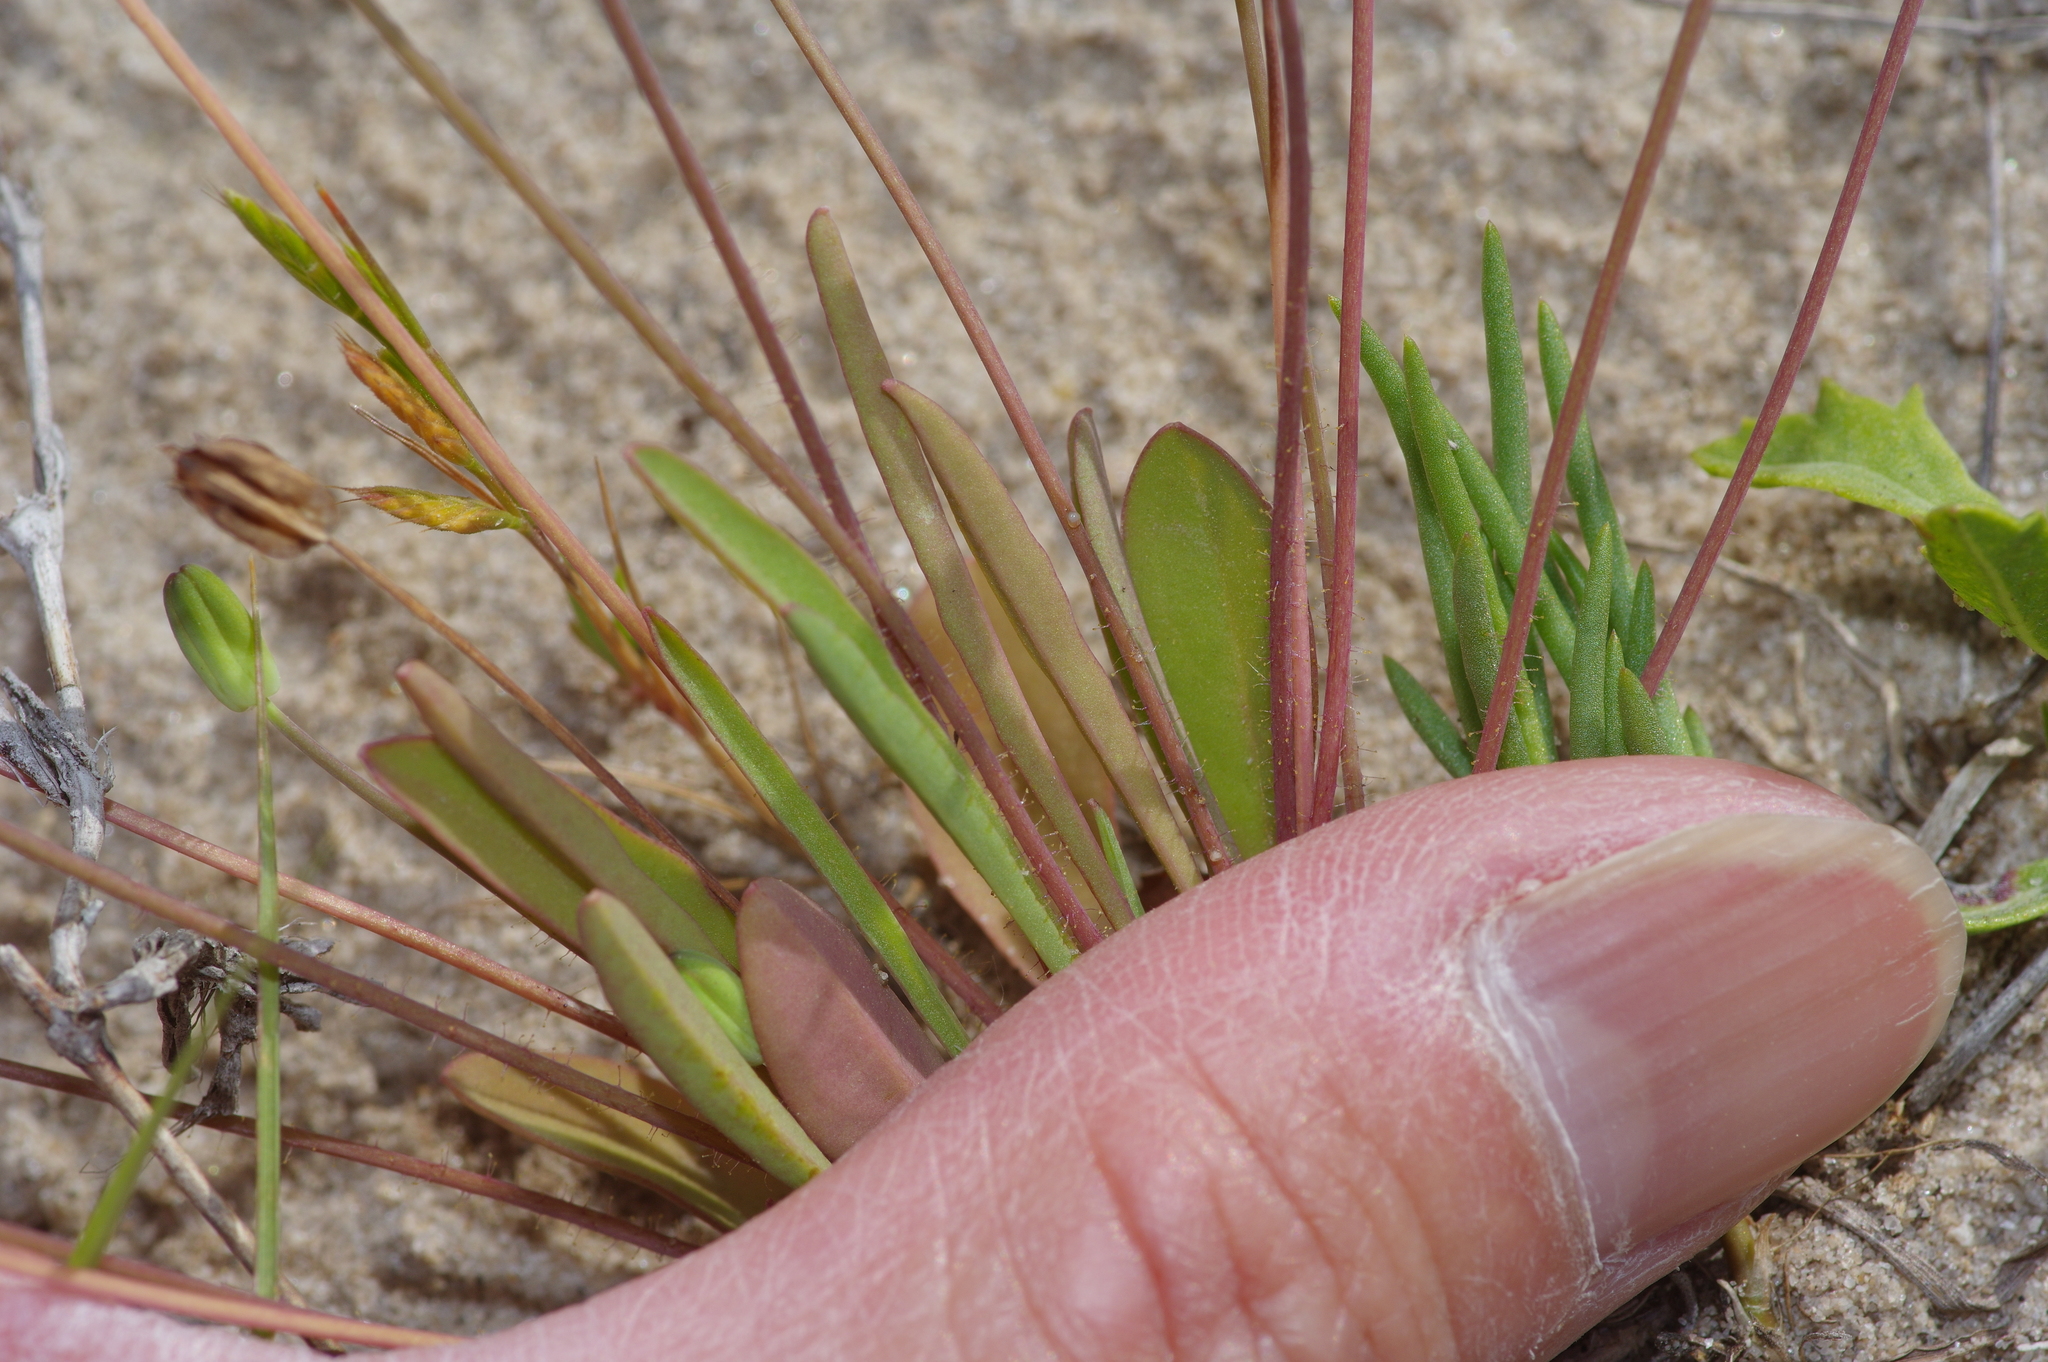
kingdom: Plantae
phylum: Tracheophyta
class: Magnoliopsida
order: Asterales
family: Asteraceae
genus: Krigia
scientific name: Krigia occidentalis
